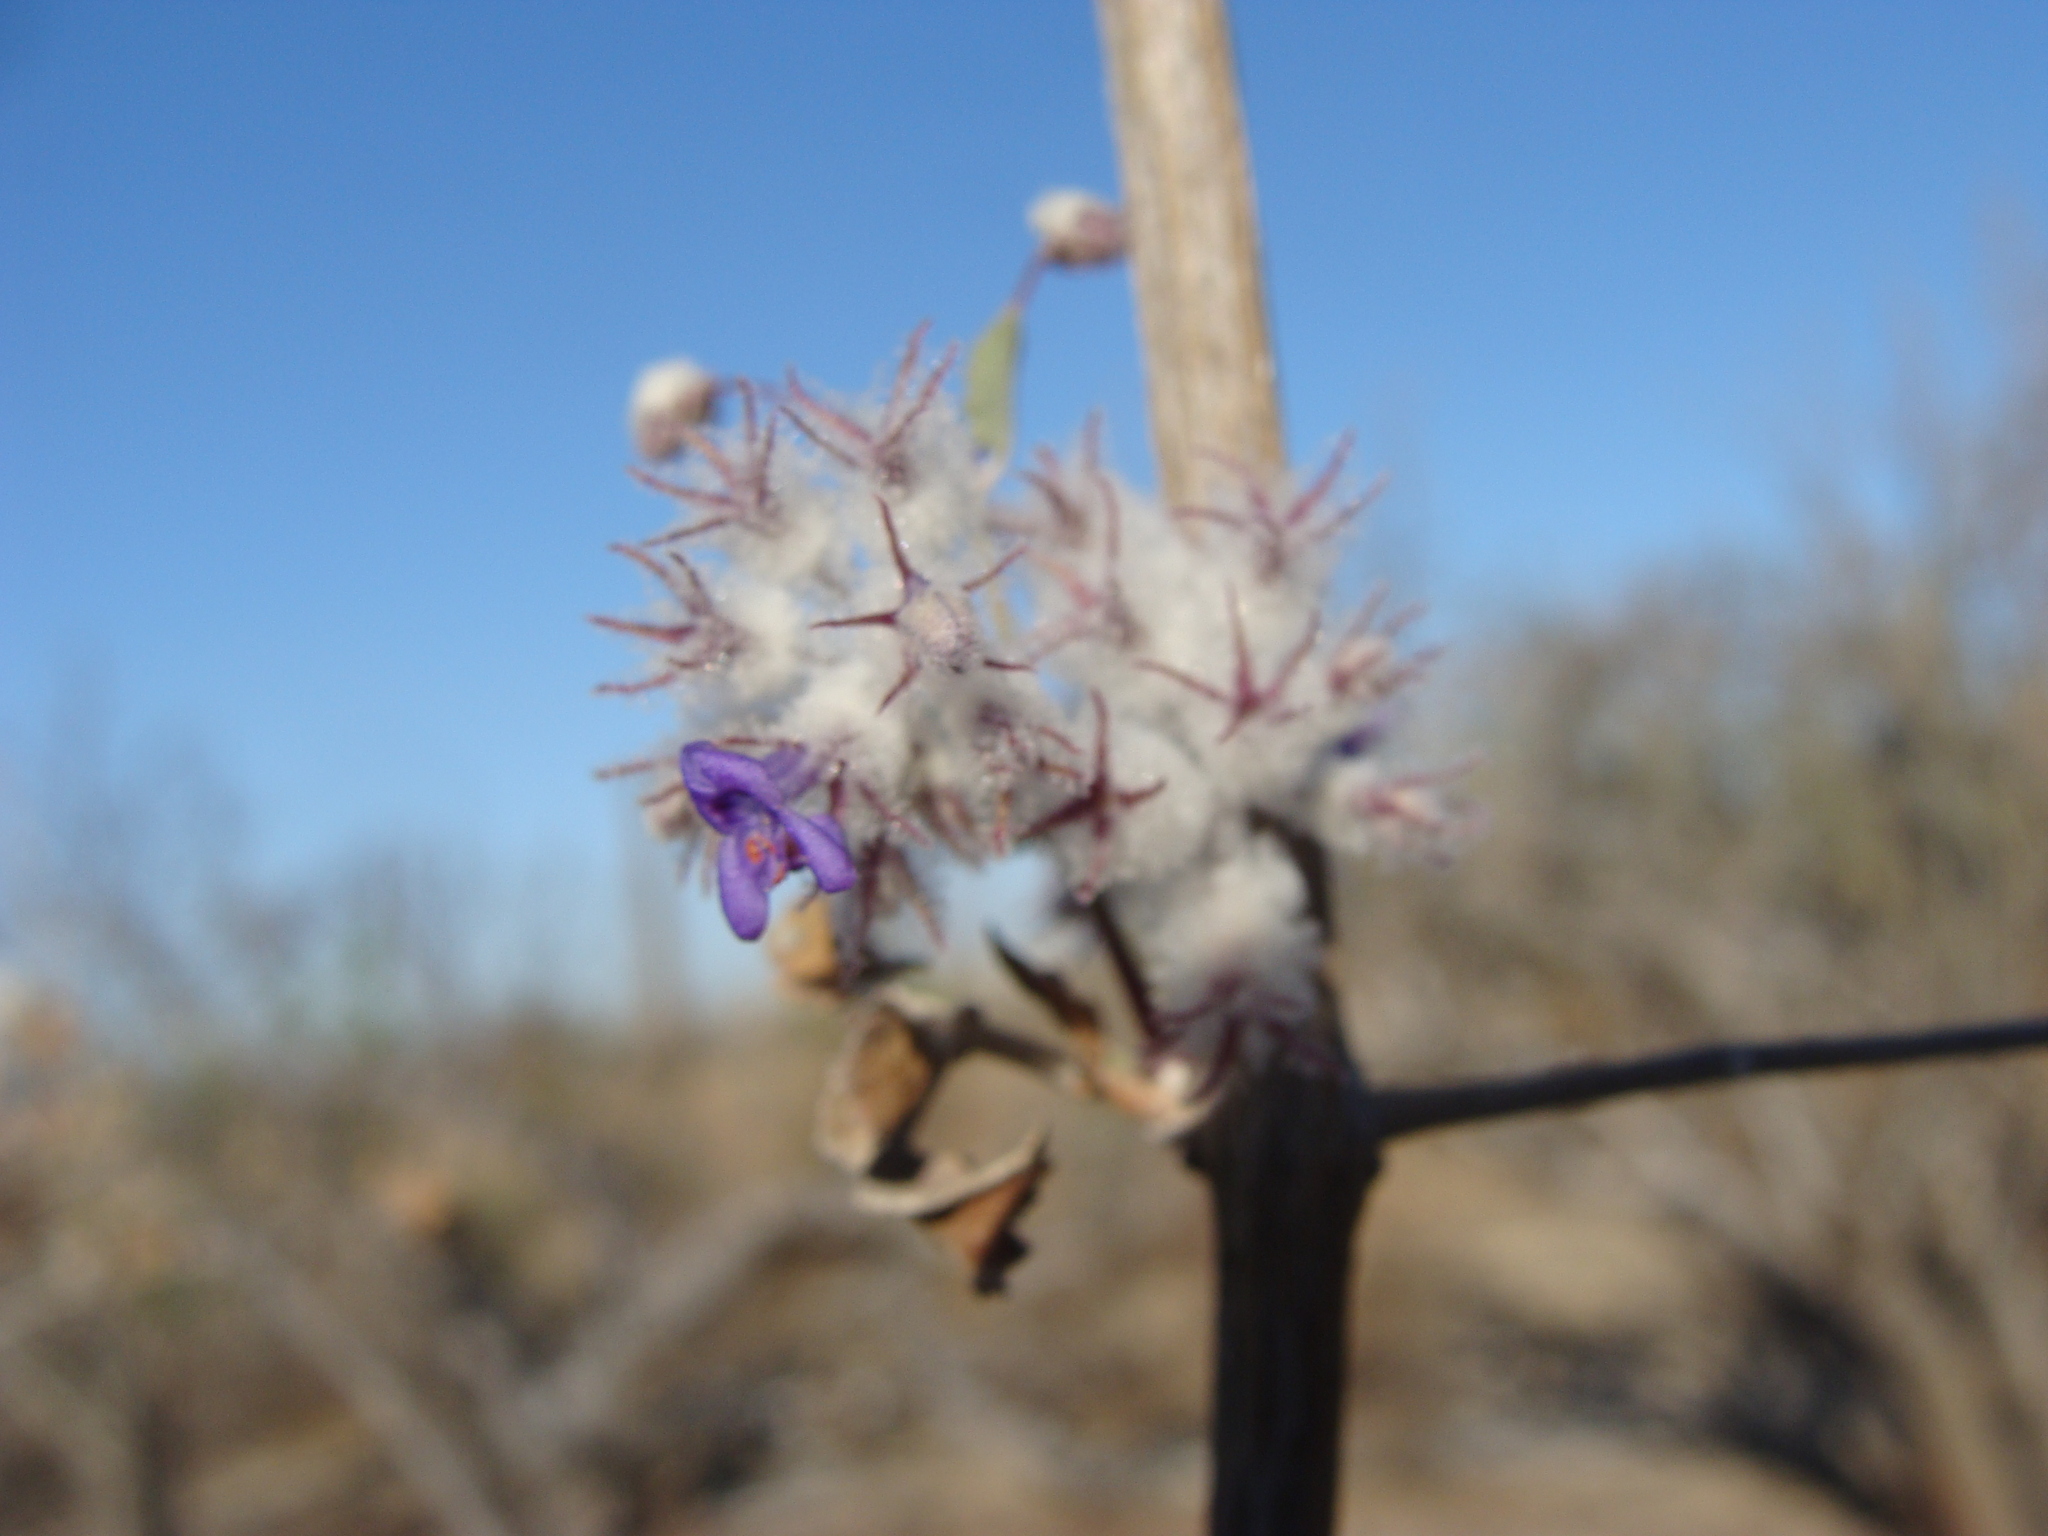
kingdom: Plantae
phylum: Tracheophyta
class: Magnoliopsida
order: Lamiales
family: Lamiaceae
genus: Condea
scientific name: Condea laniflora
